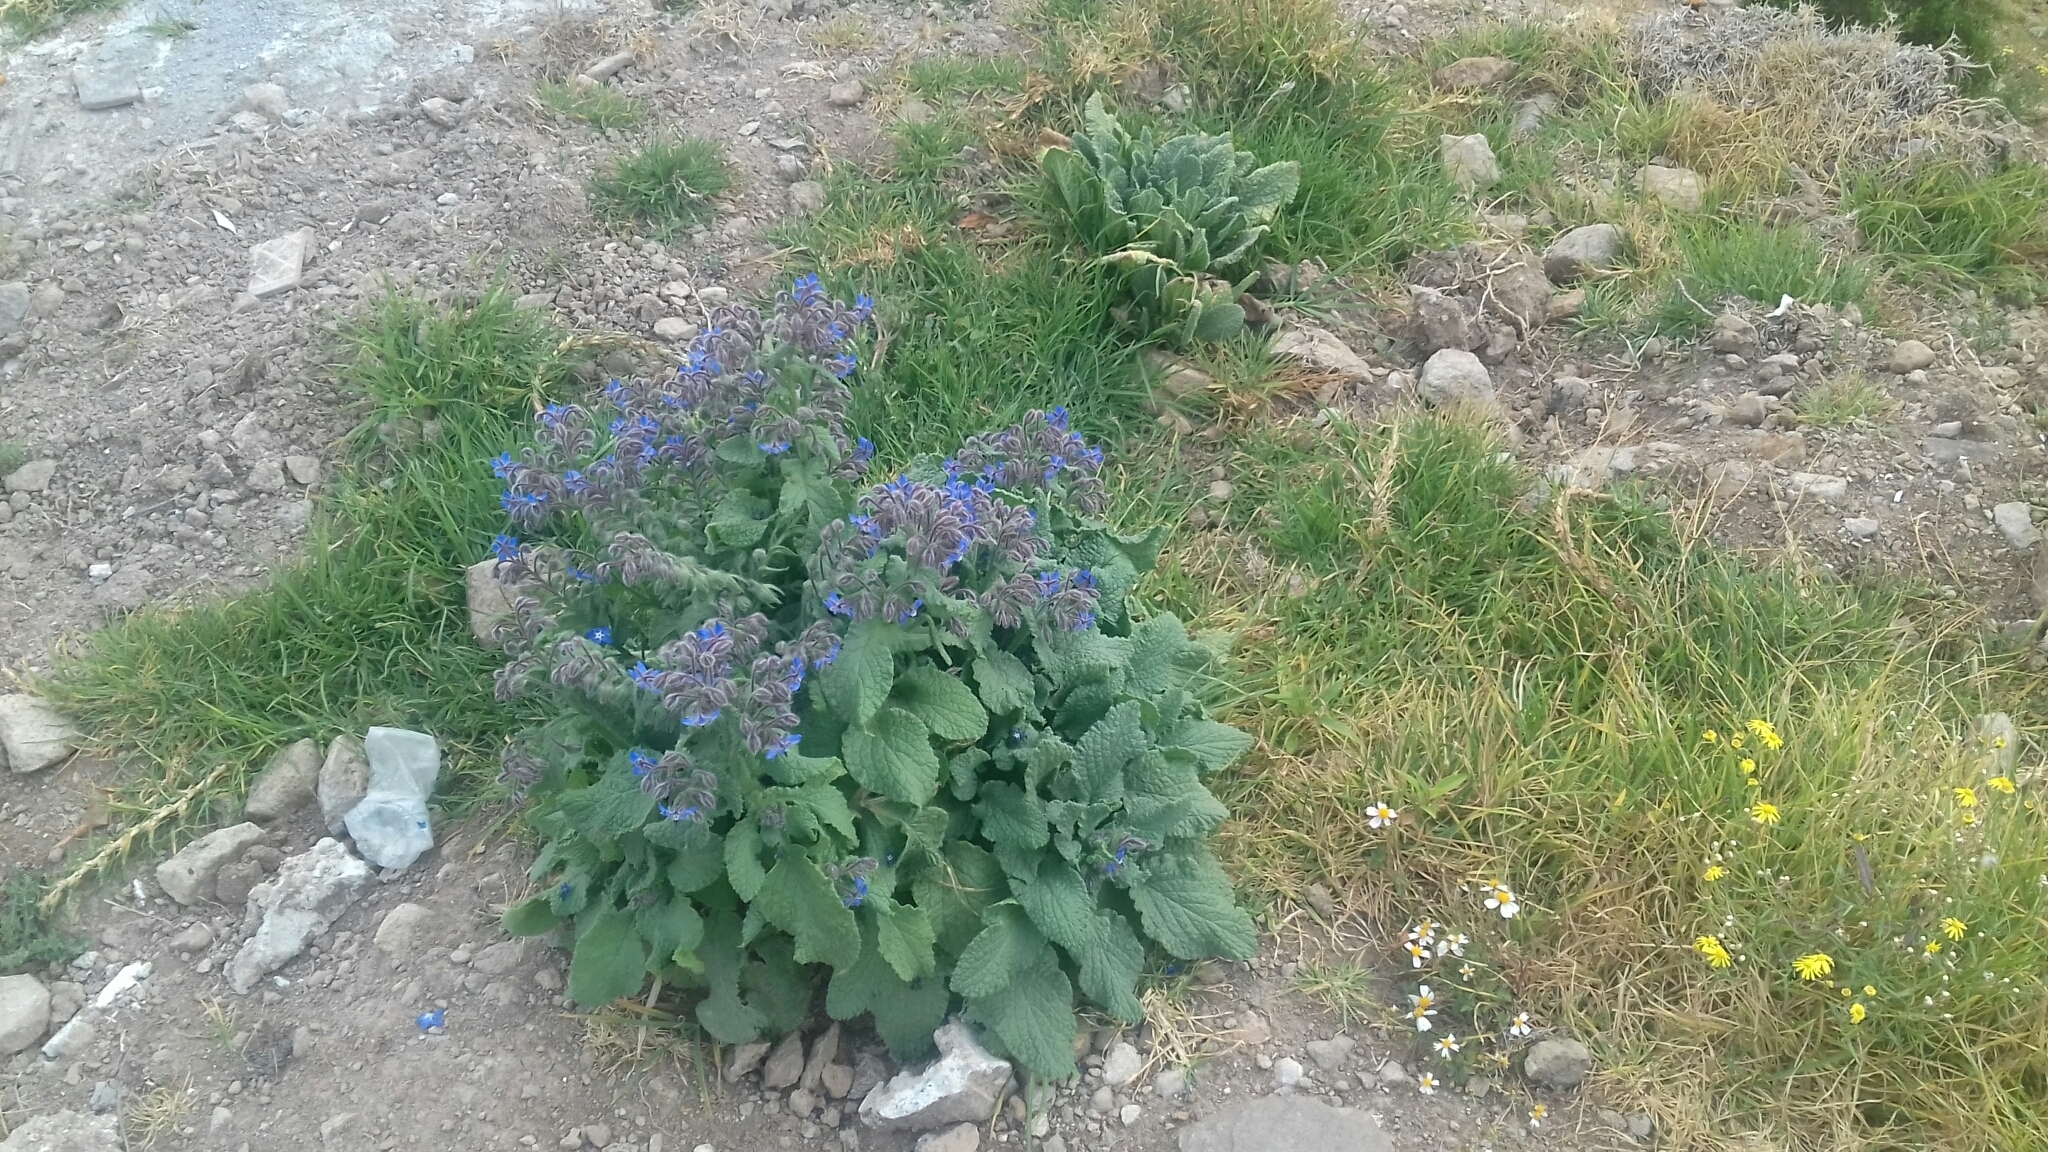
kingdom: Plantae
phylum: Tracheophyta
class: Magnoliopsida
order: Boraginales
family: Boraginaceae
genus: Borago
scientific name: Borago officinalis
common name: Borage
